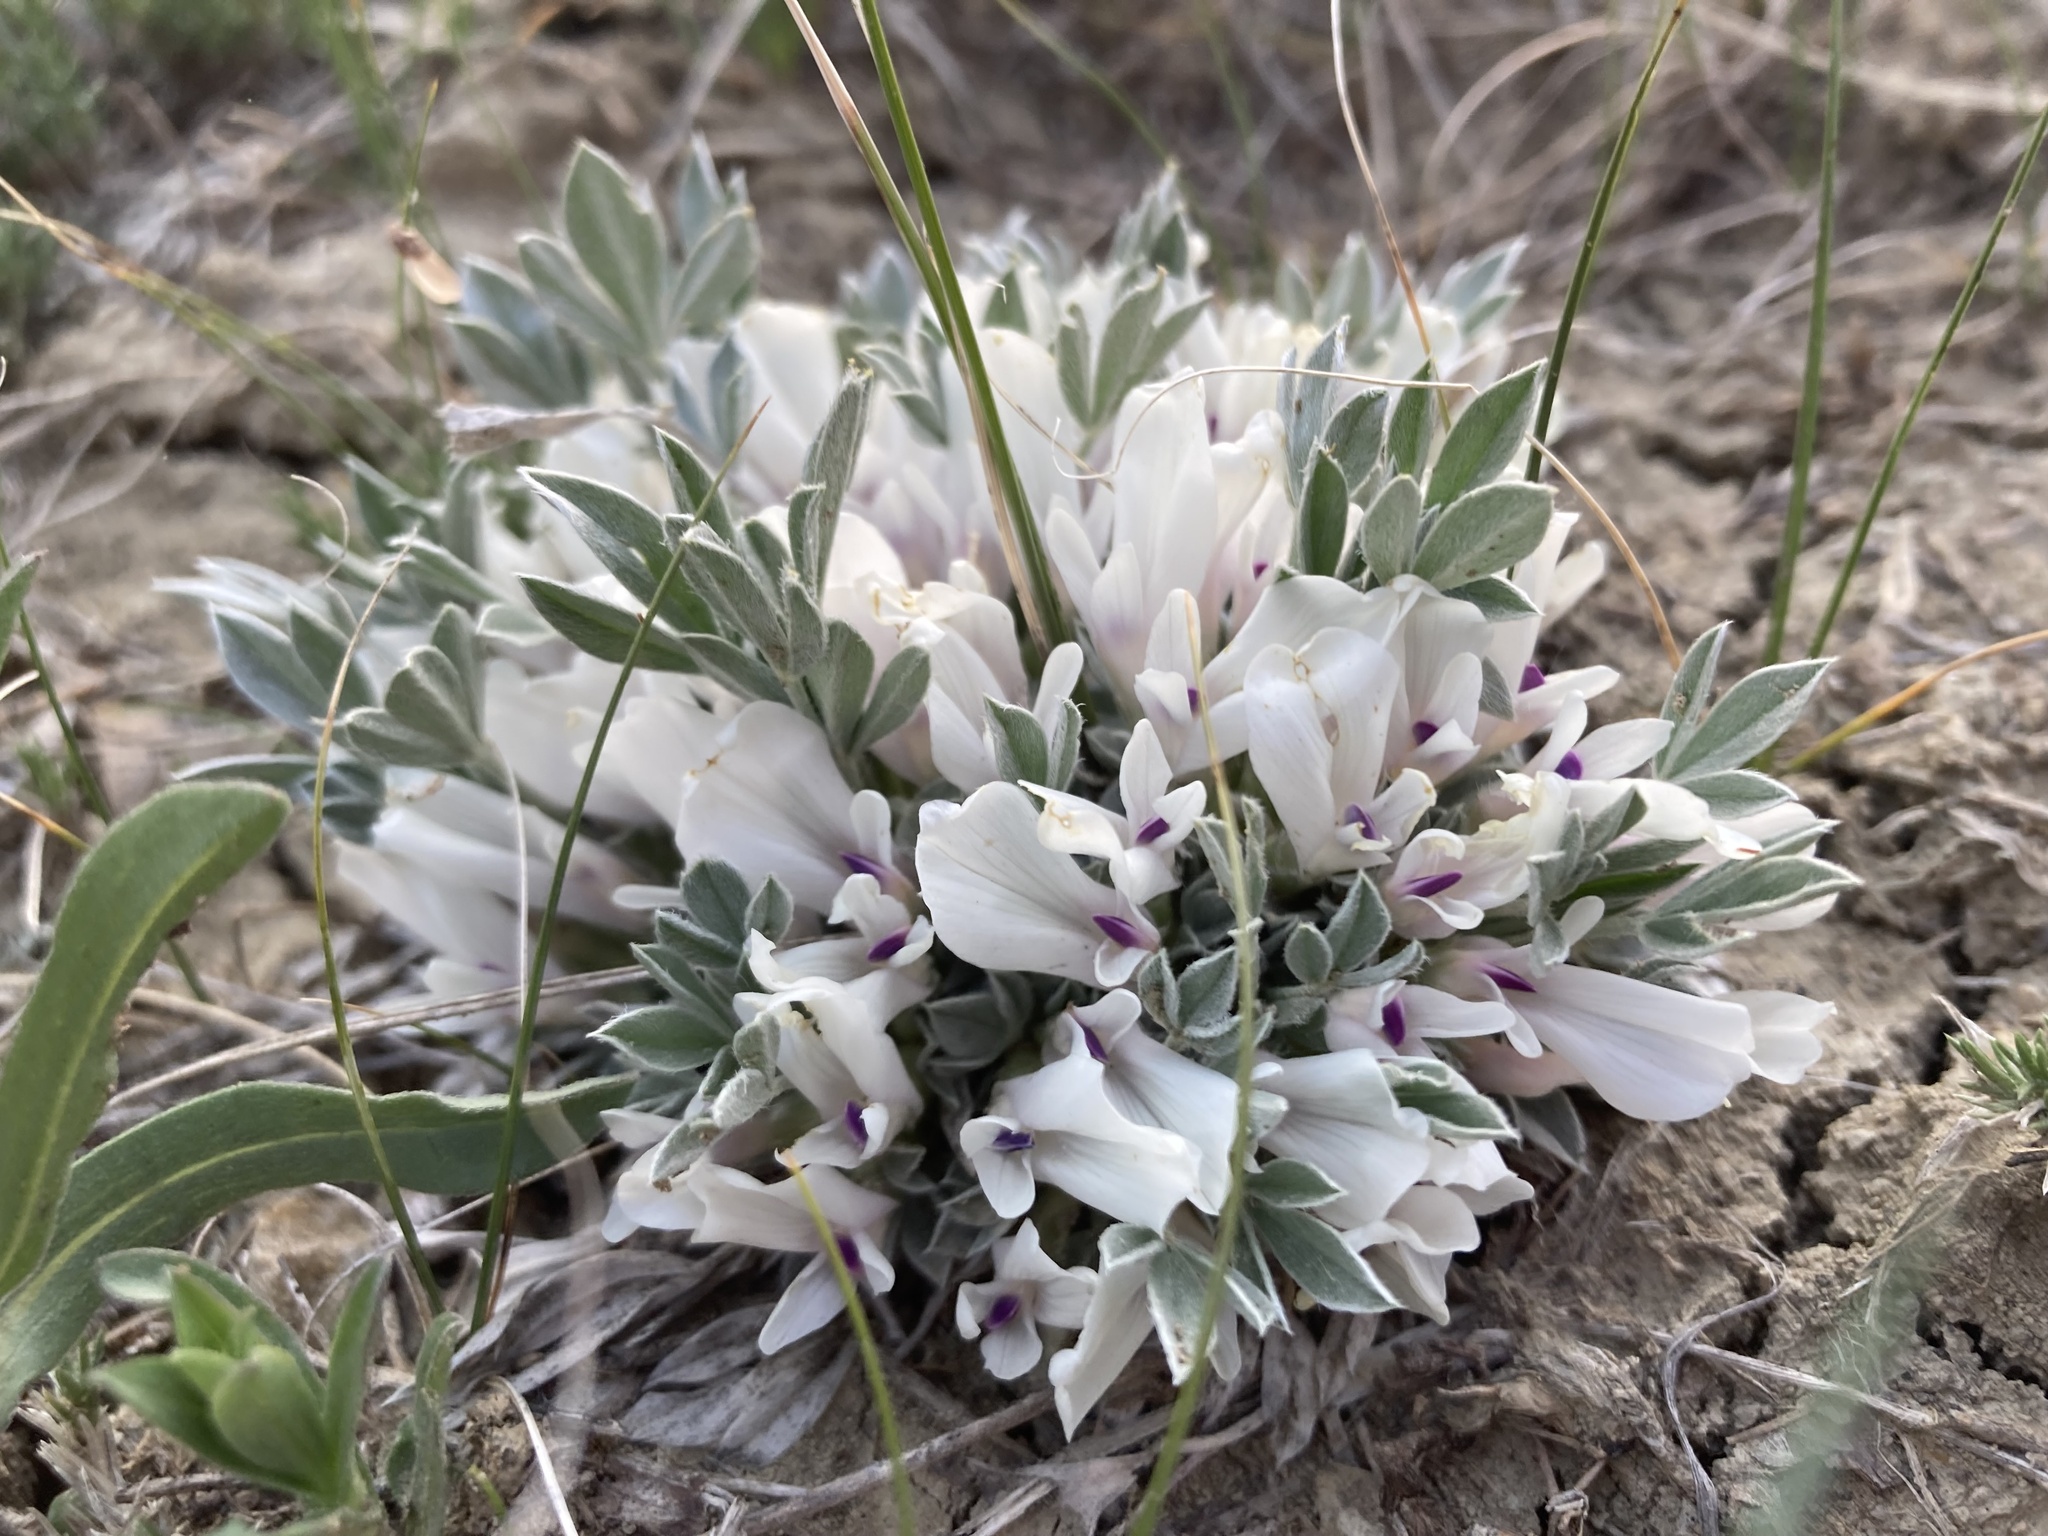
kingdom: Plantae
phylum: Tracheophyta
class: Magnoliopsida
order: Fabales
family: Fabaceae
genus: Astragalus
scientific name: Astragalus gilviflorus
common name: Cushion milk-vetch
